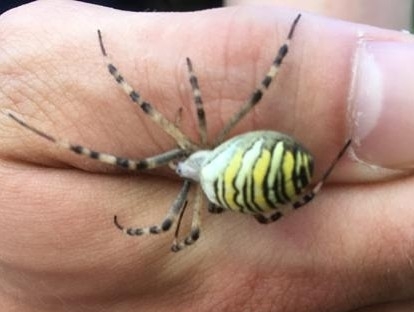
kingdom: Animalia
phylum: Arthropoda
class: Arachnida
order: Araneae
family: Araneidae
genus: Argiope
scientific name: Argiope bruennichi
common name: Wasp spider
